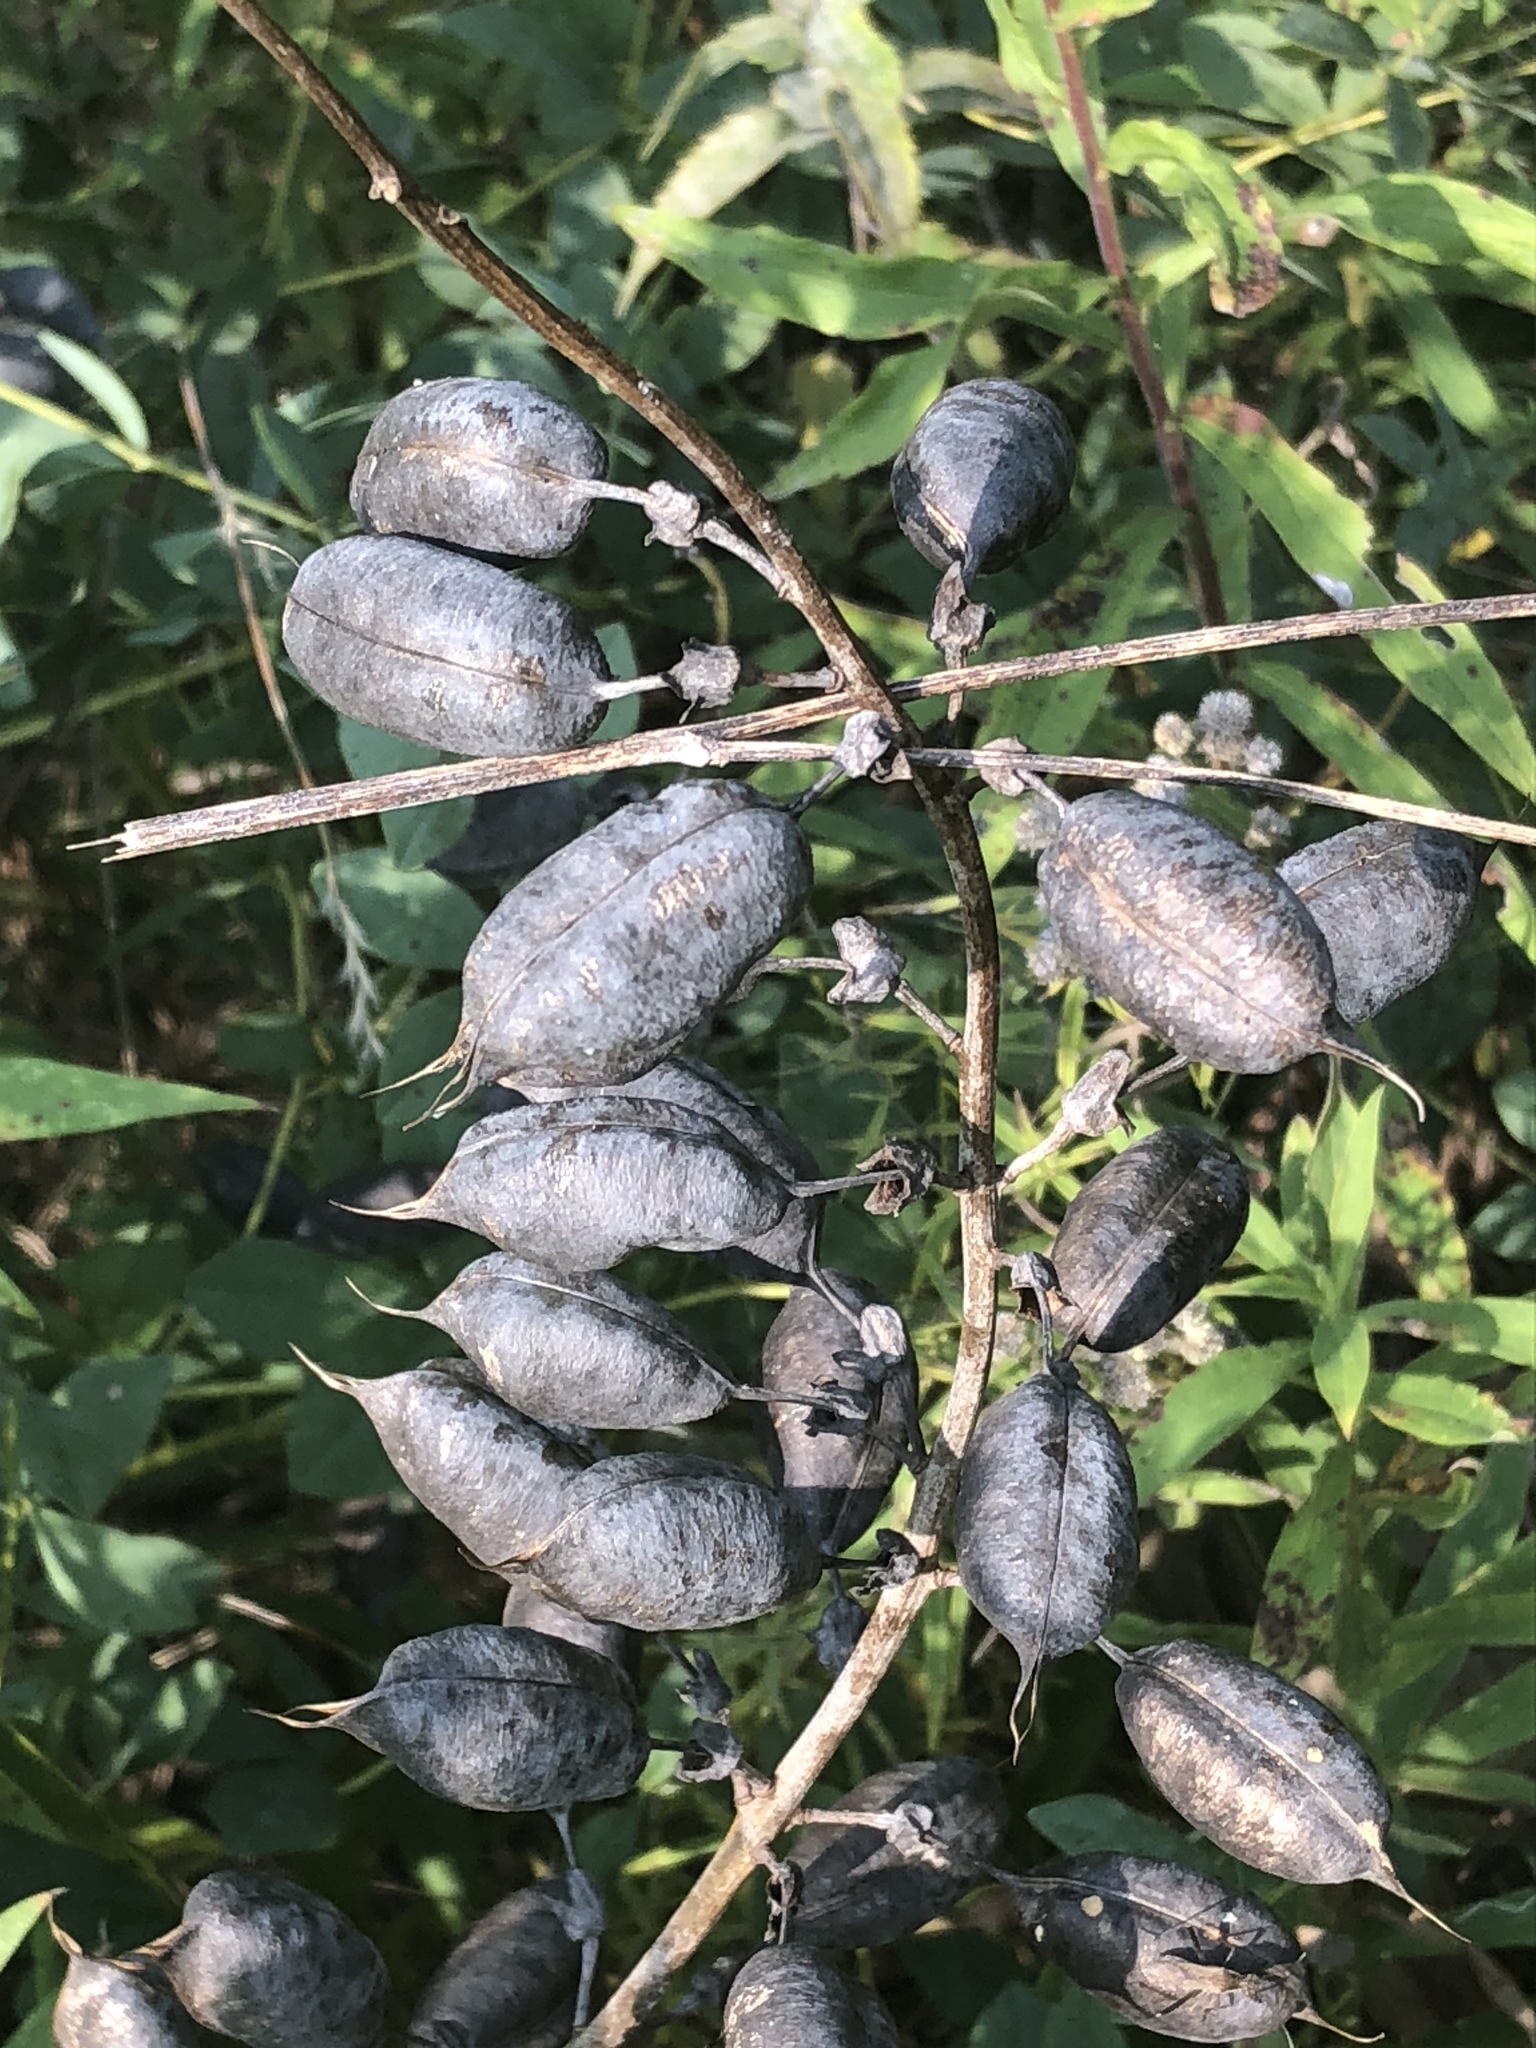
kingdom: Plantae
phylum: Tracheophyta
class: Magnoliopsida
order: Fabales
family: Fabaceae
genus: Baptisia
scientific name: Baptisia australis
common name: Blue false indigo
